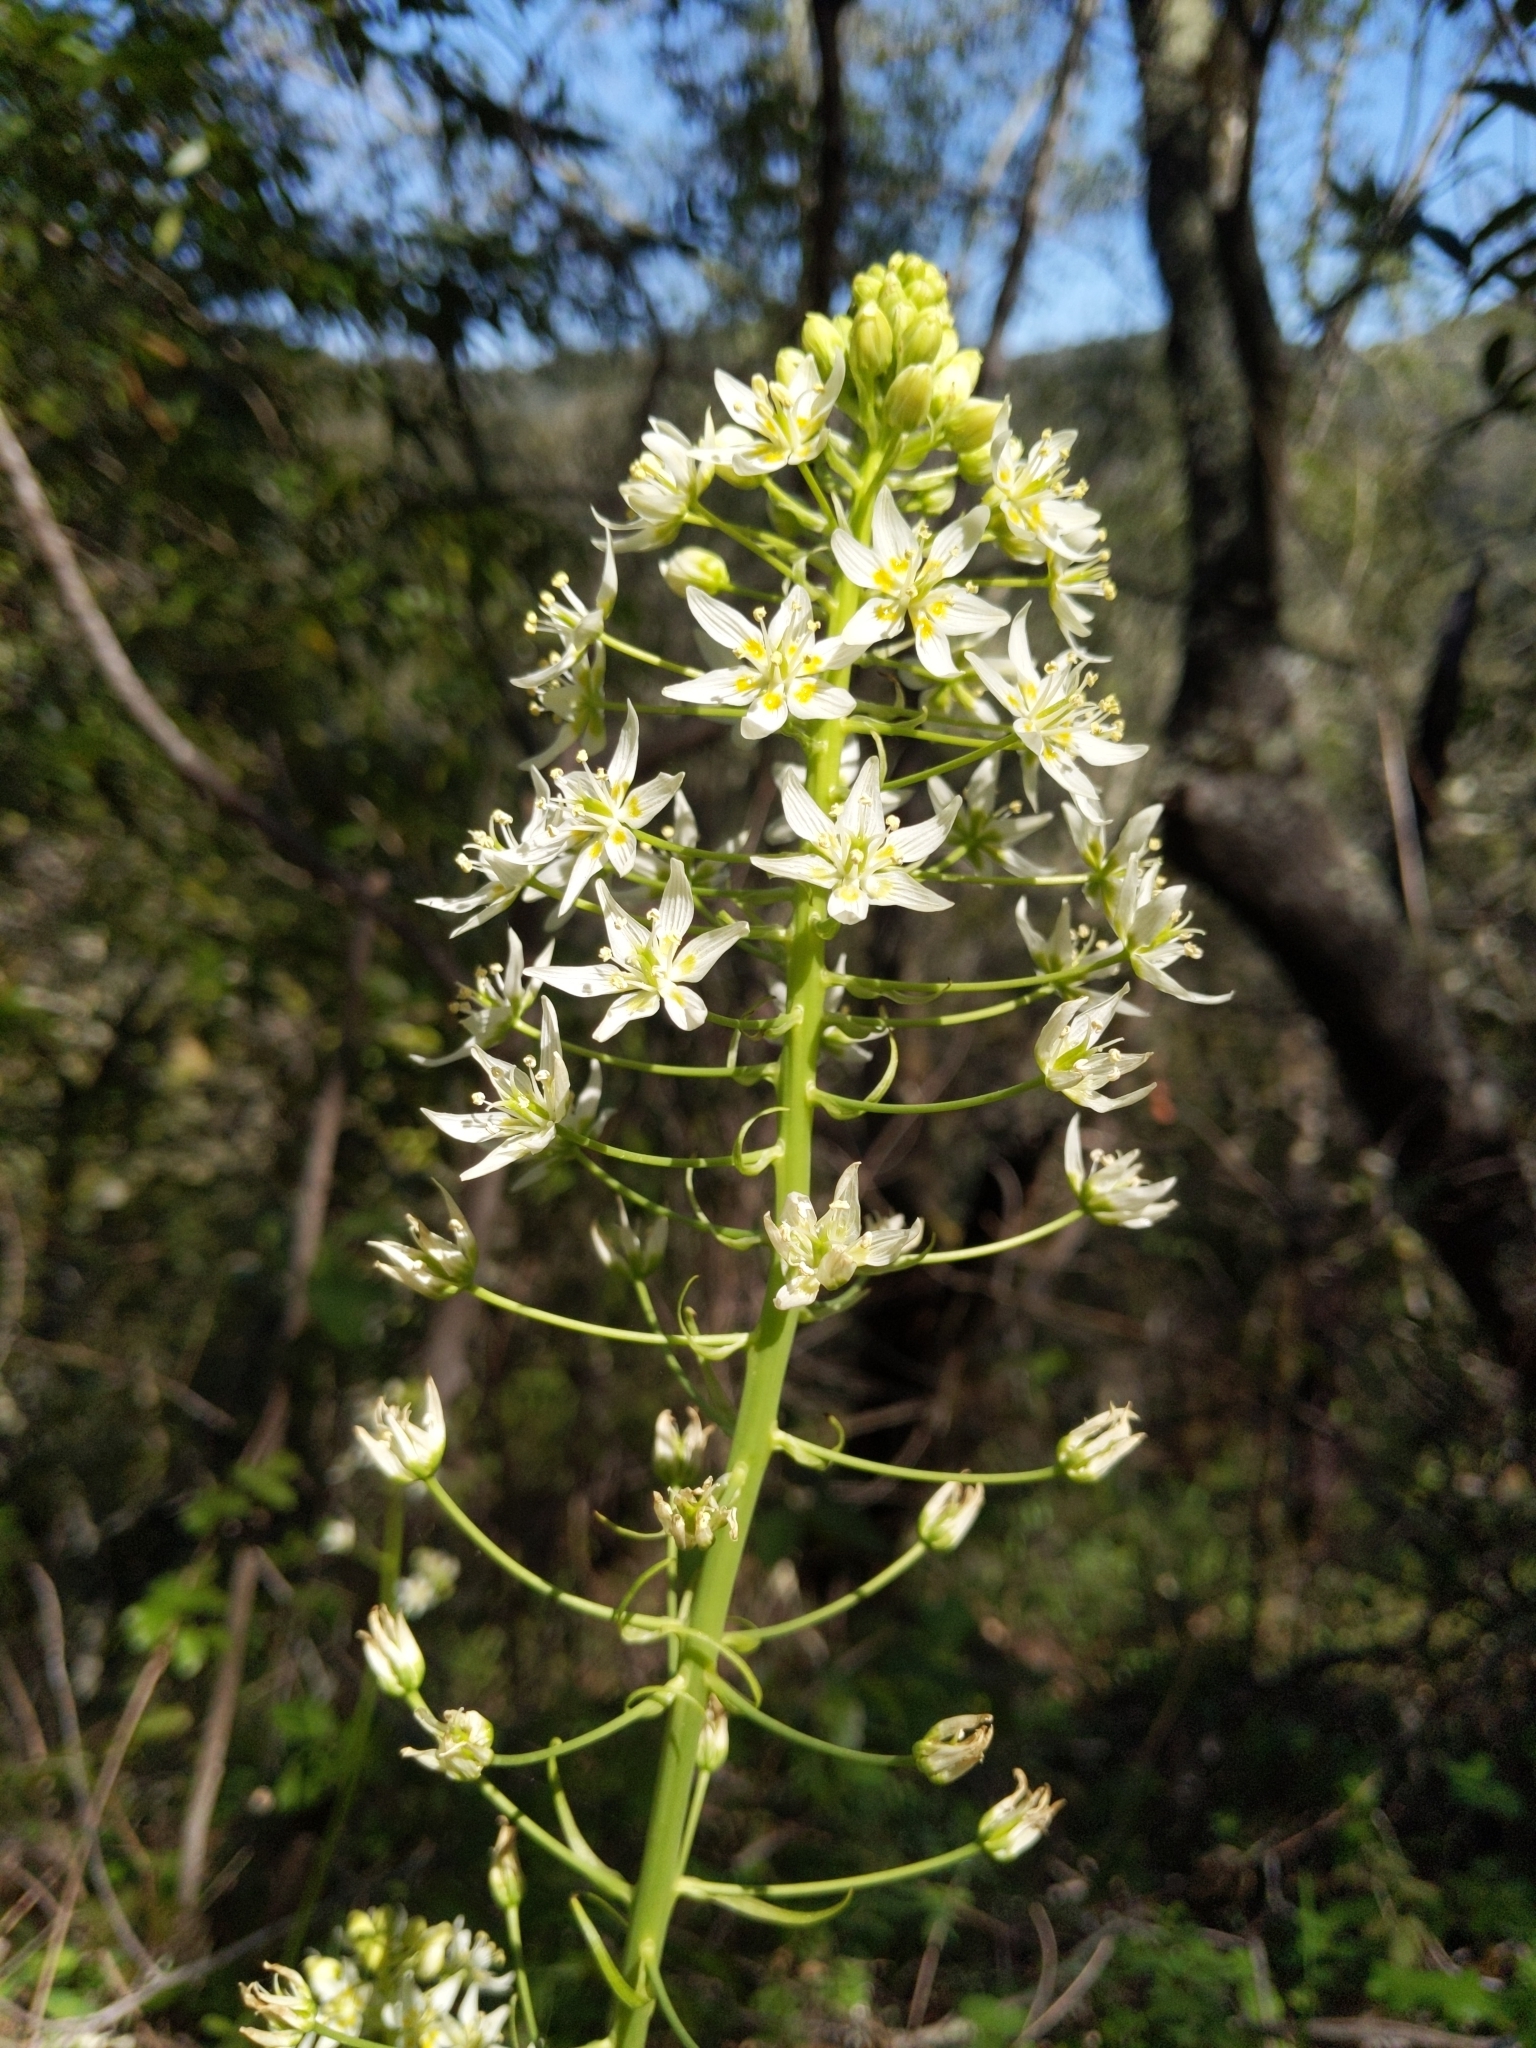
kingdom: Plantae
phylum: Tracheophyta
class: Liliopsida
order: Liliales
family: Melanthiaceae
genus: Toxicoscordion
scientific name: Toxicoscordion fremontii
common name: Fremont's death camas
